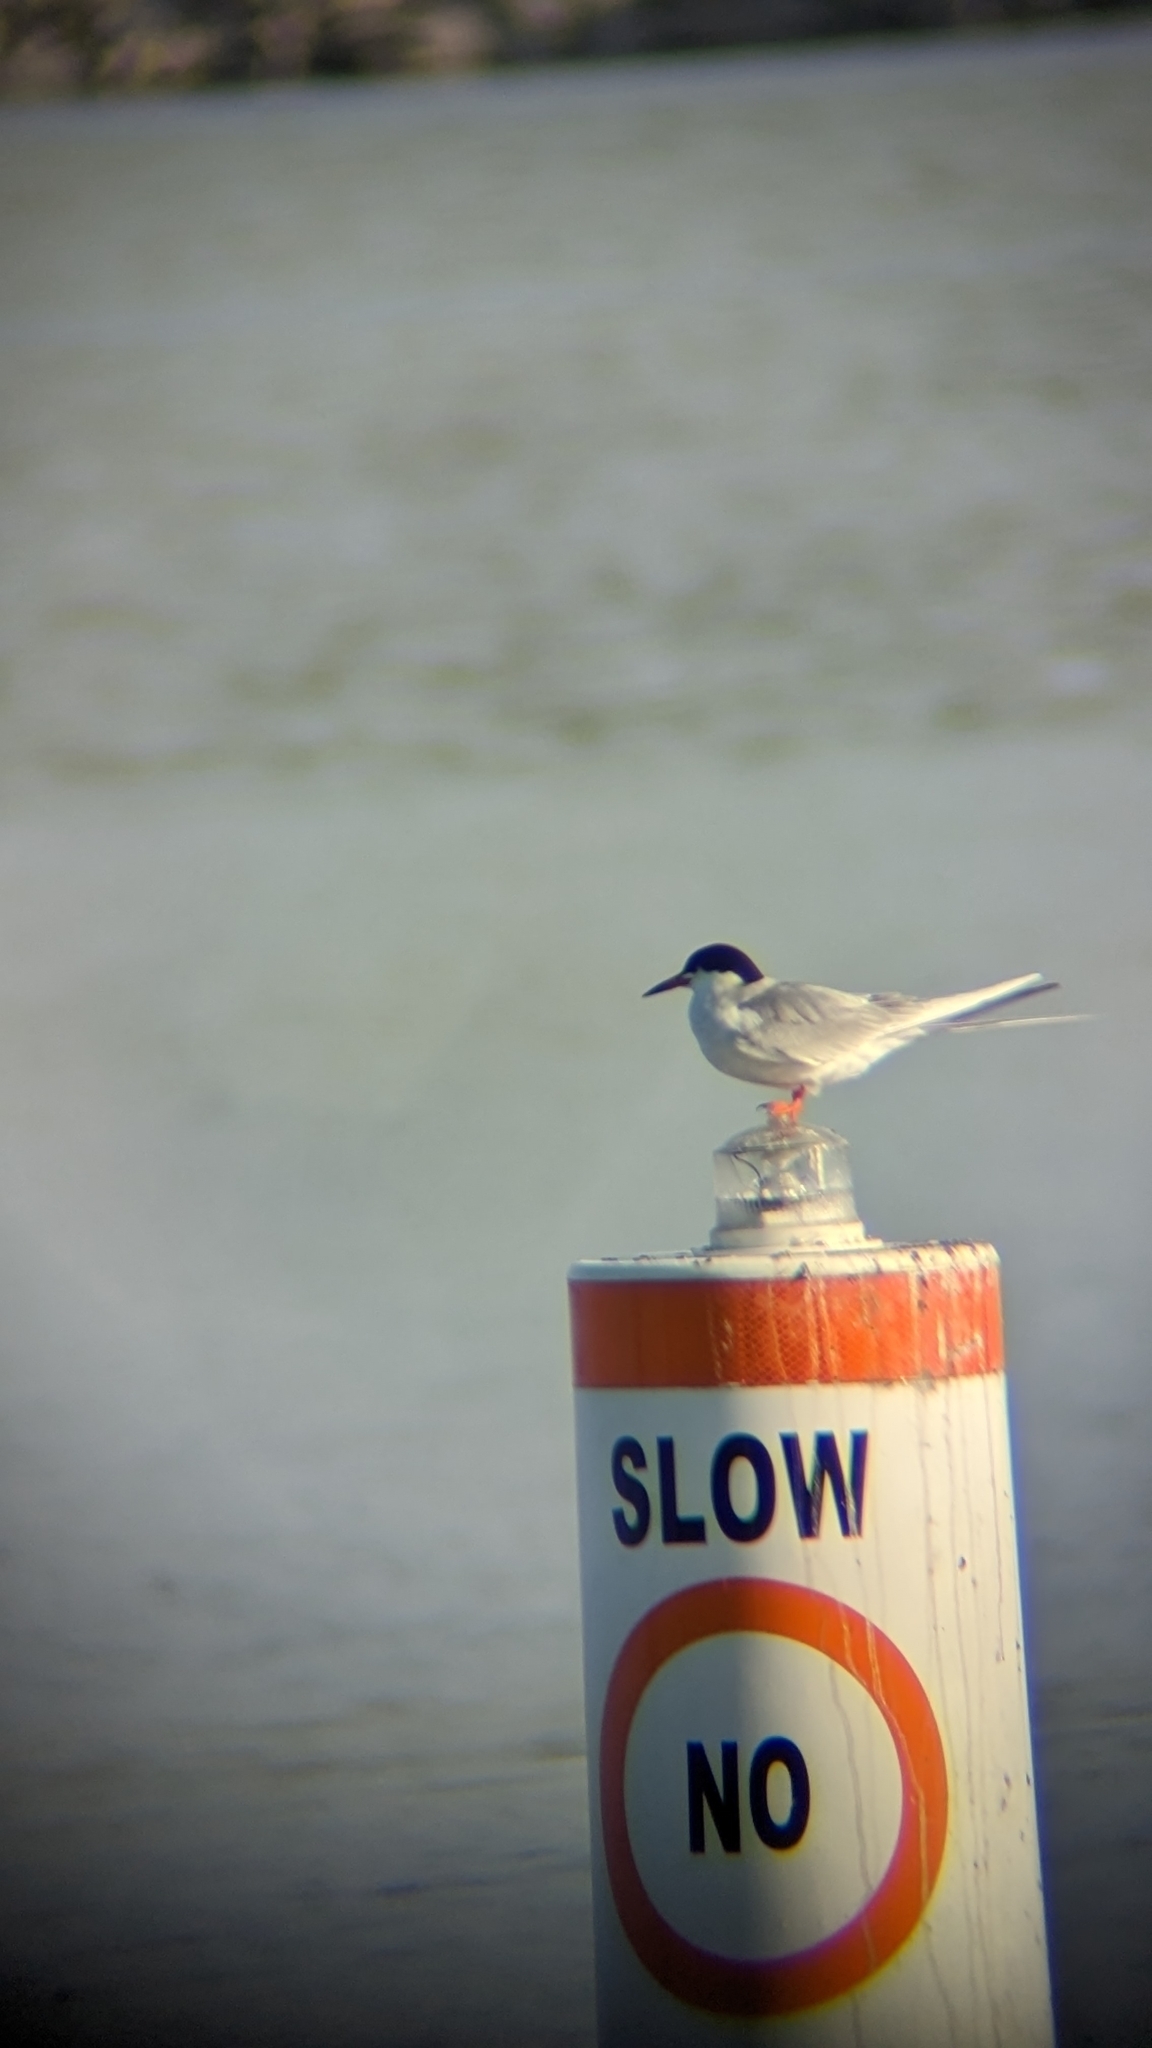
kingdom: Animalia
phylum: Chordata
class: Aves
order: Charadriiformes
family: Laridae
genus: Sterna
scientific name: Sterna hirundo
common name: Common tern
